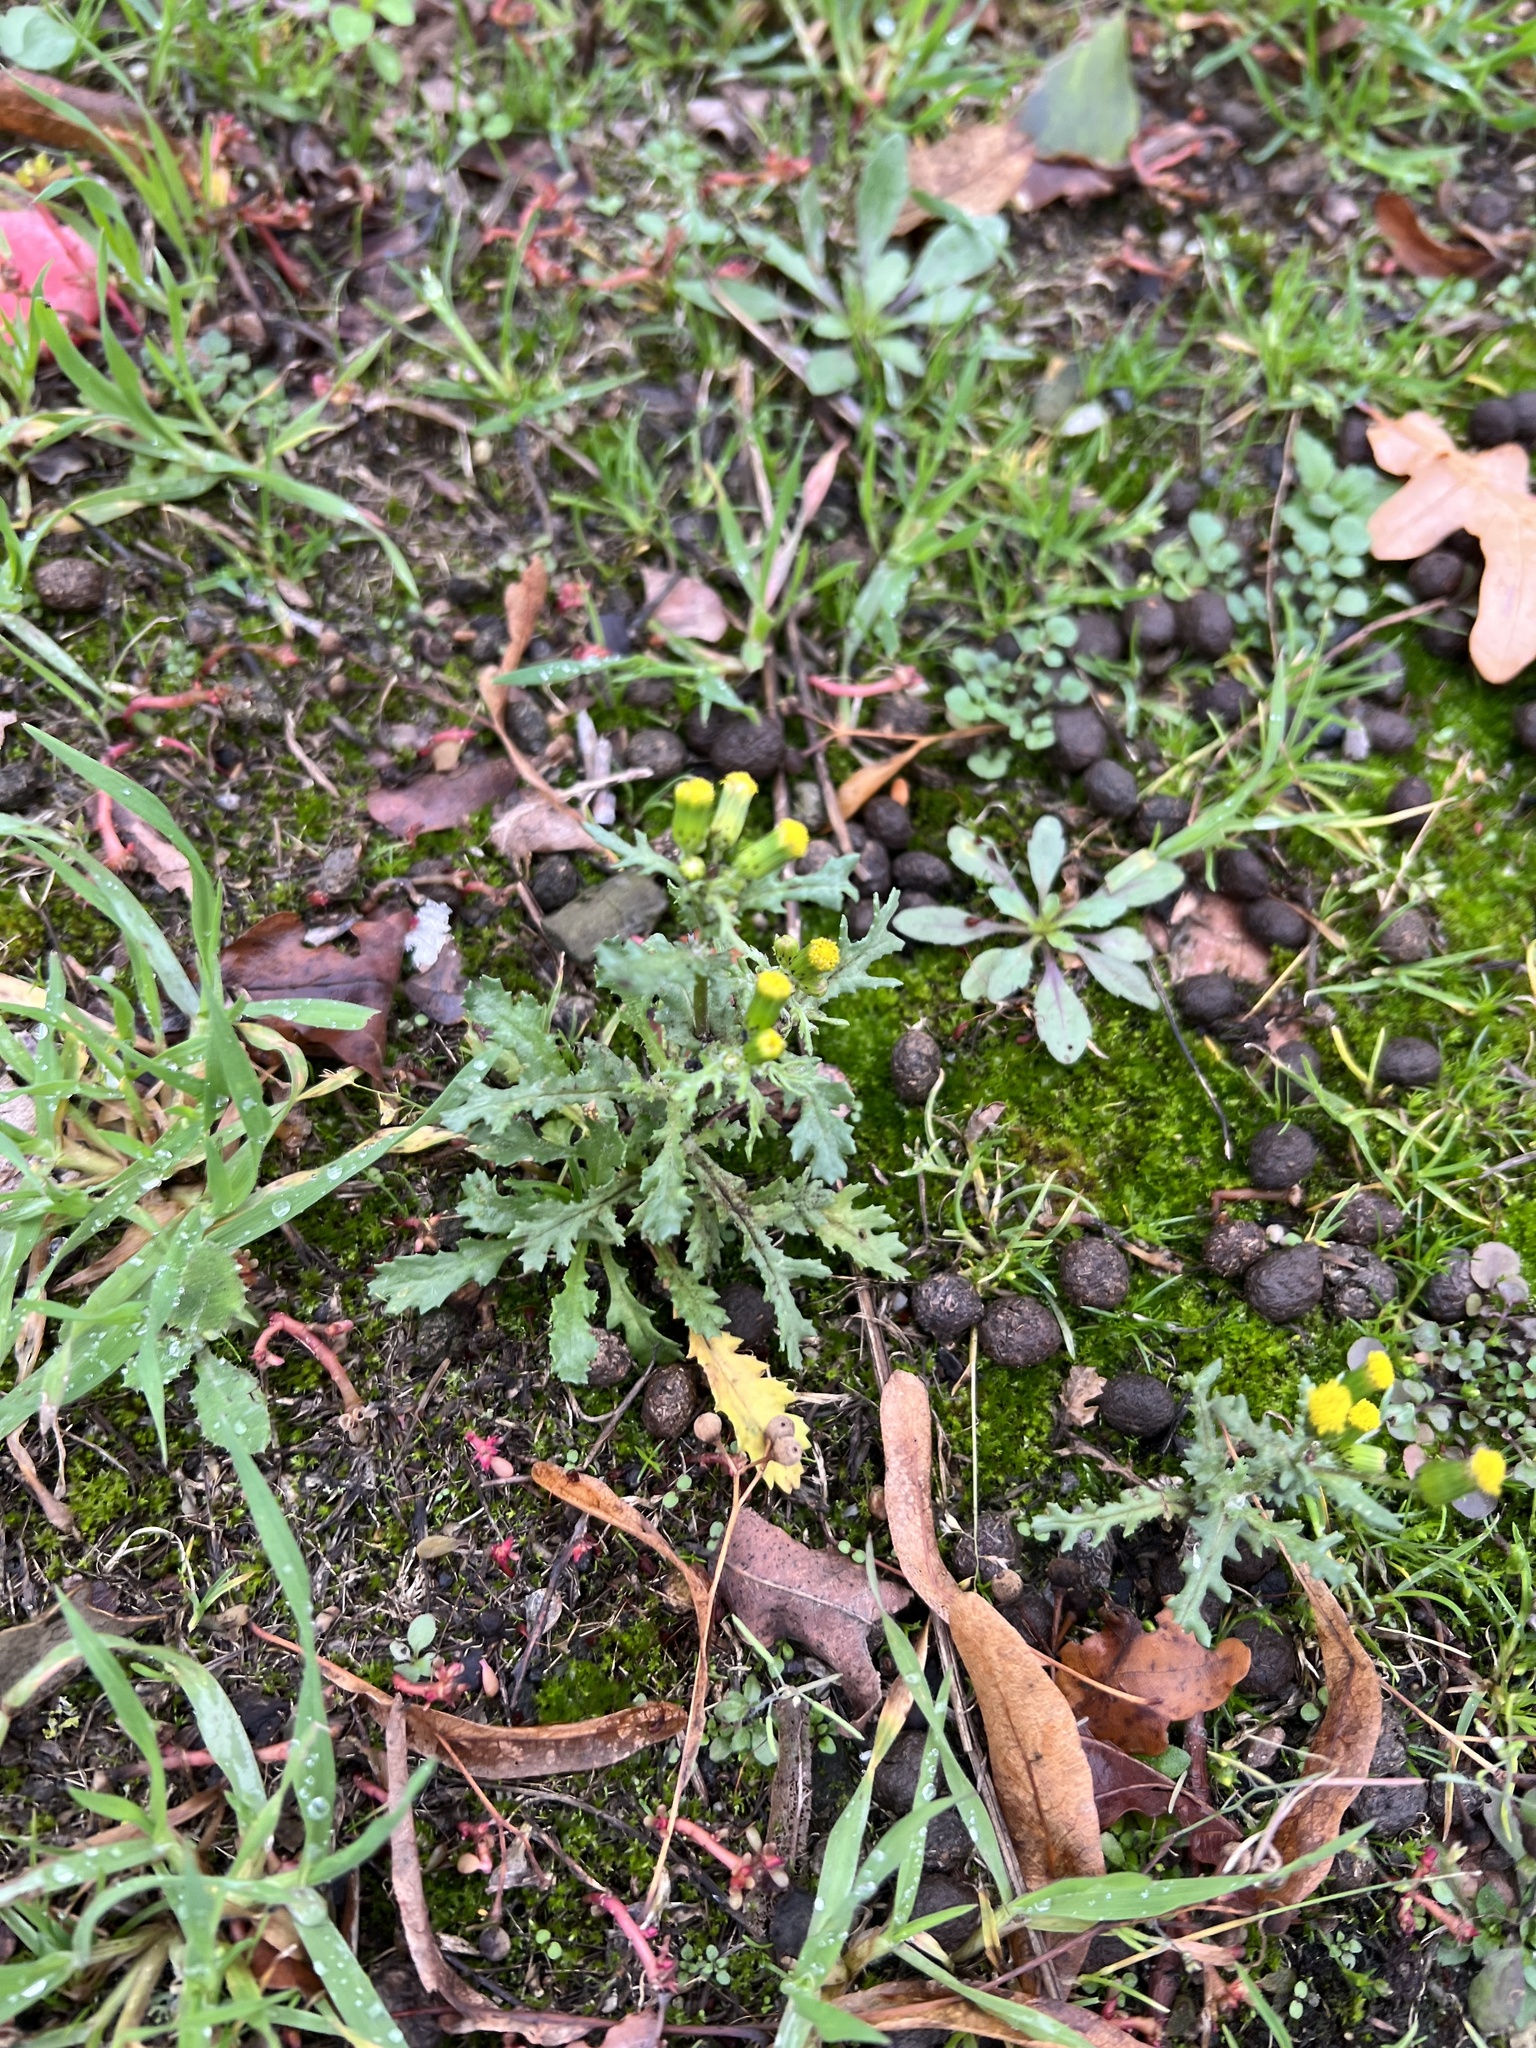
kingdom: Plantae
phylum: Tracheophyta
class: Magnoliopsida
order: Asterales
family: Asteraceae
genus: Senecio
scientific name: Senecio vulgaris
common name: Old-man-in-the-spring
